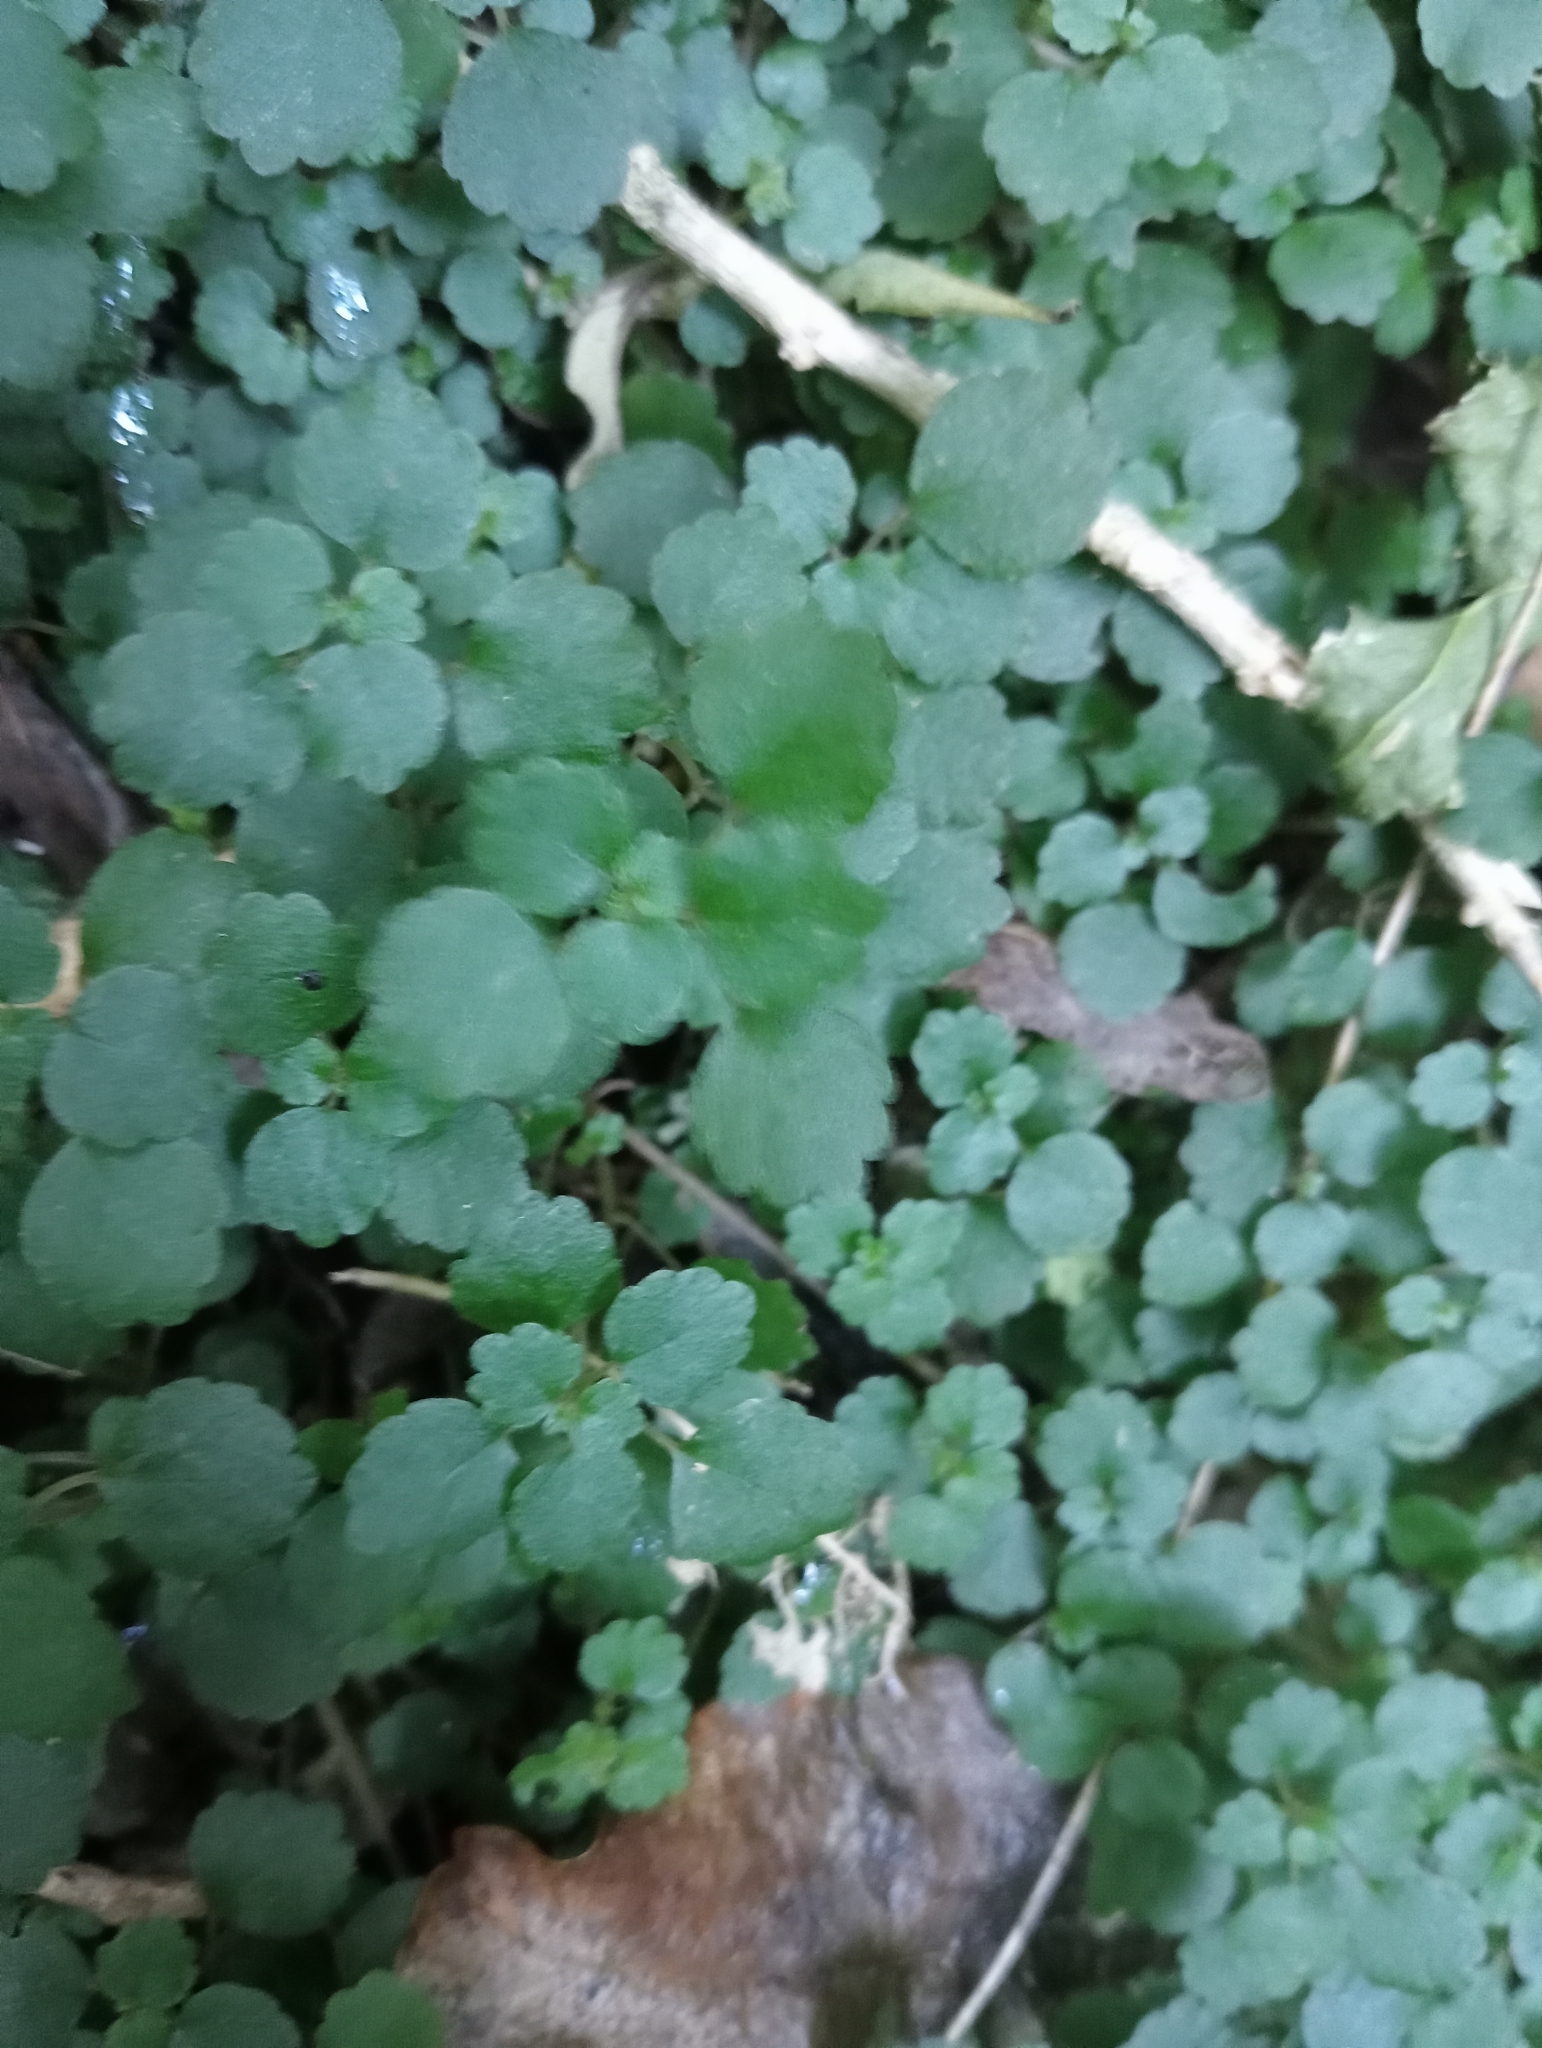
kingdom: Plantae
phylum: Tracheophyta
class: Magnoliopsida
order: Rosales
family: Urticaceae
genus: Australina
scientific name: Australina pusilla
